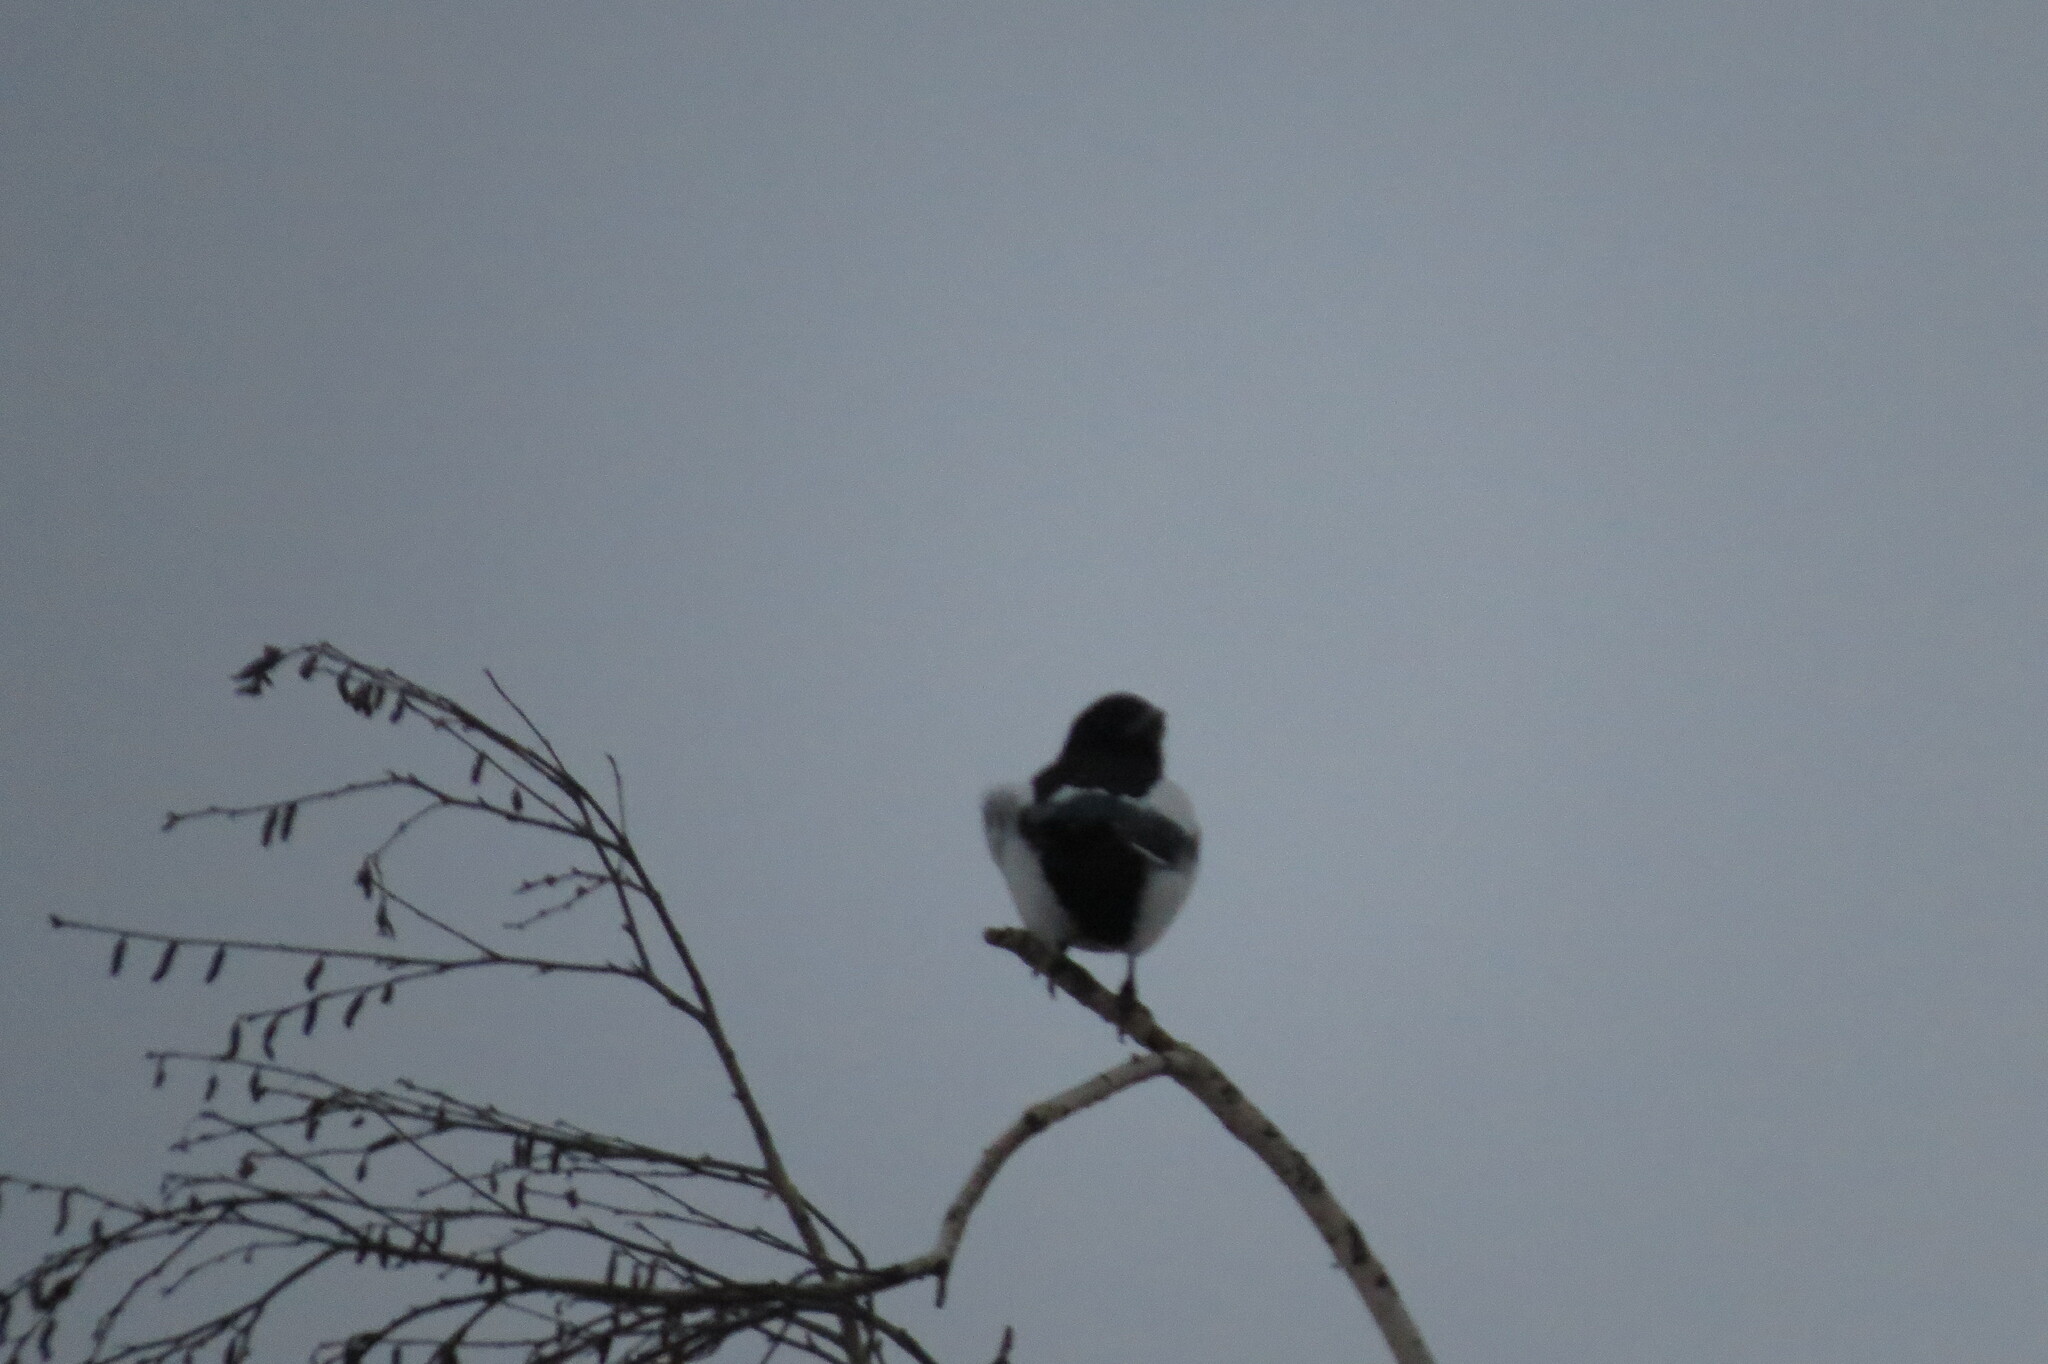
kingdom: Animalia
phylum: Chordata
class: Aves
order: Passeriformes
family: Corvidae
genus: Pica
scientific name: Pica pica
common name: Eurasian magpie
